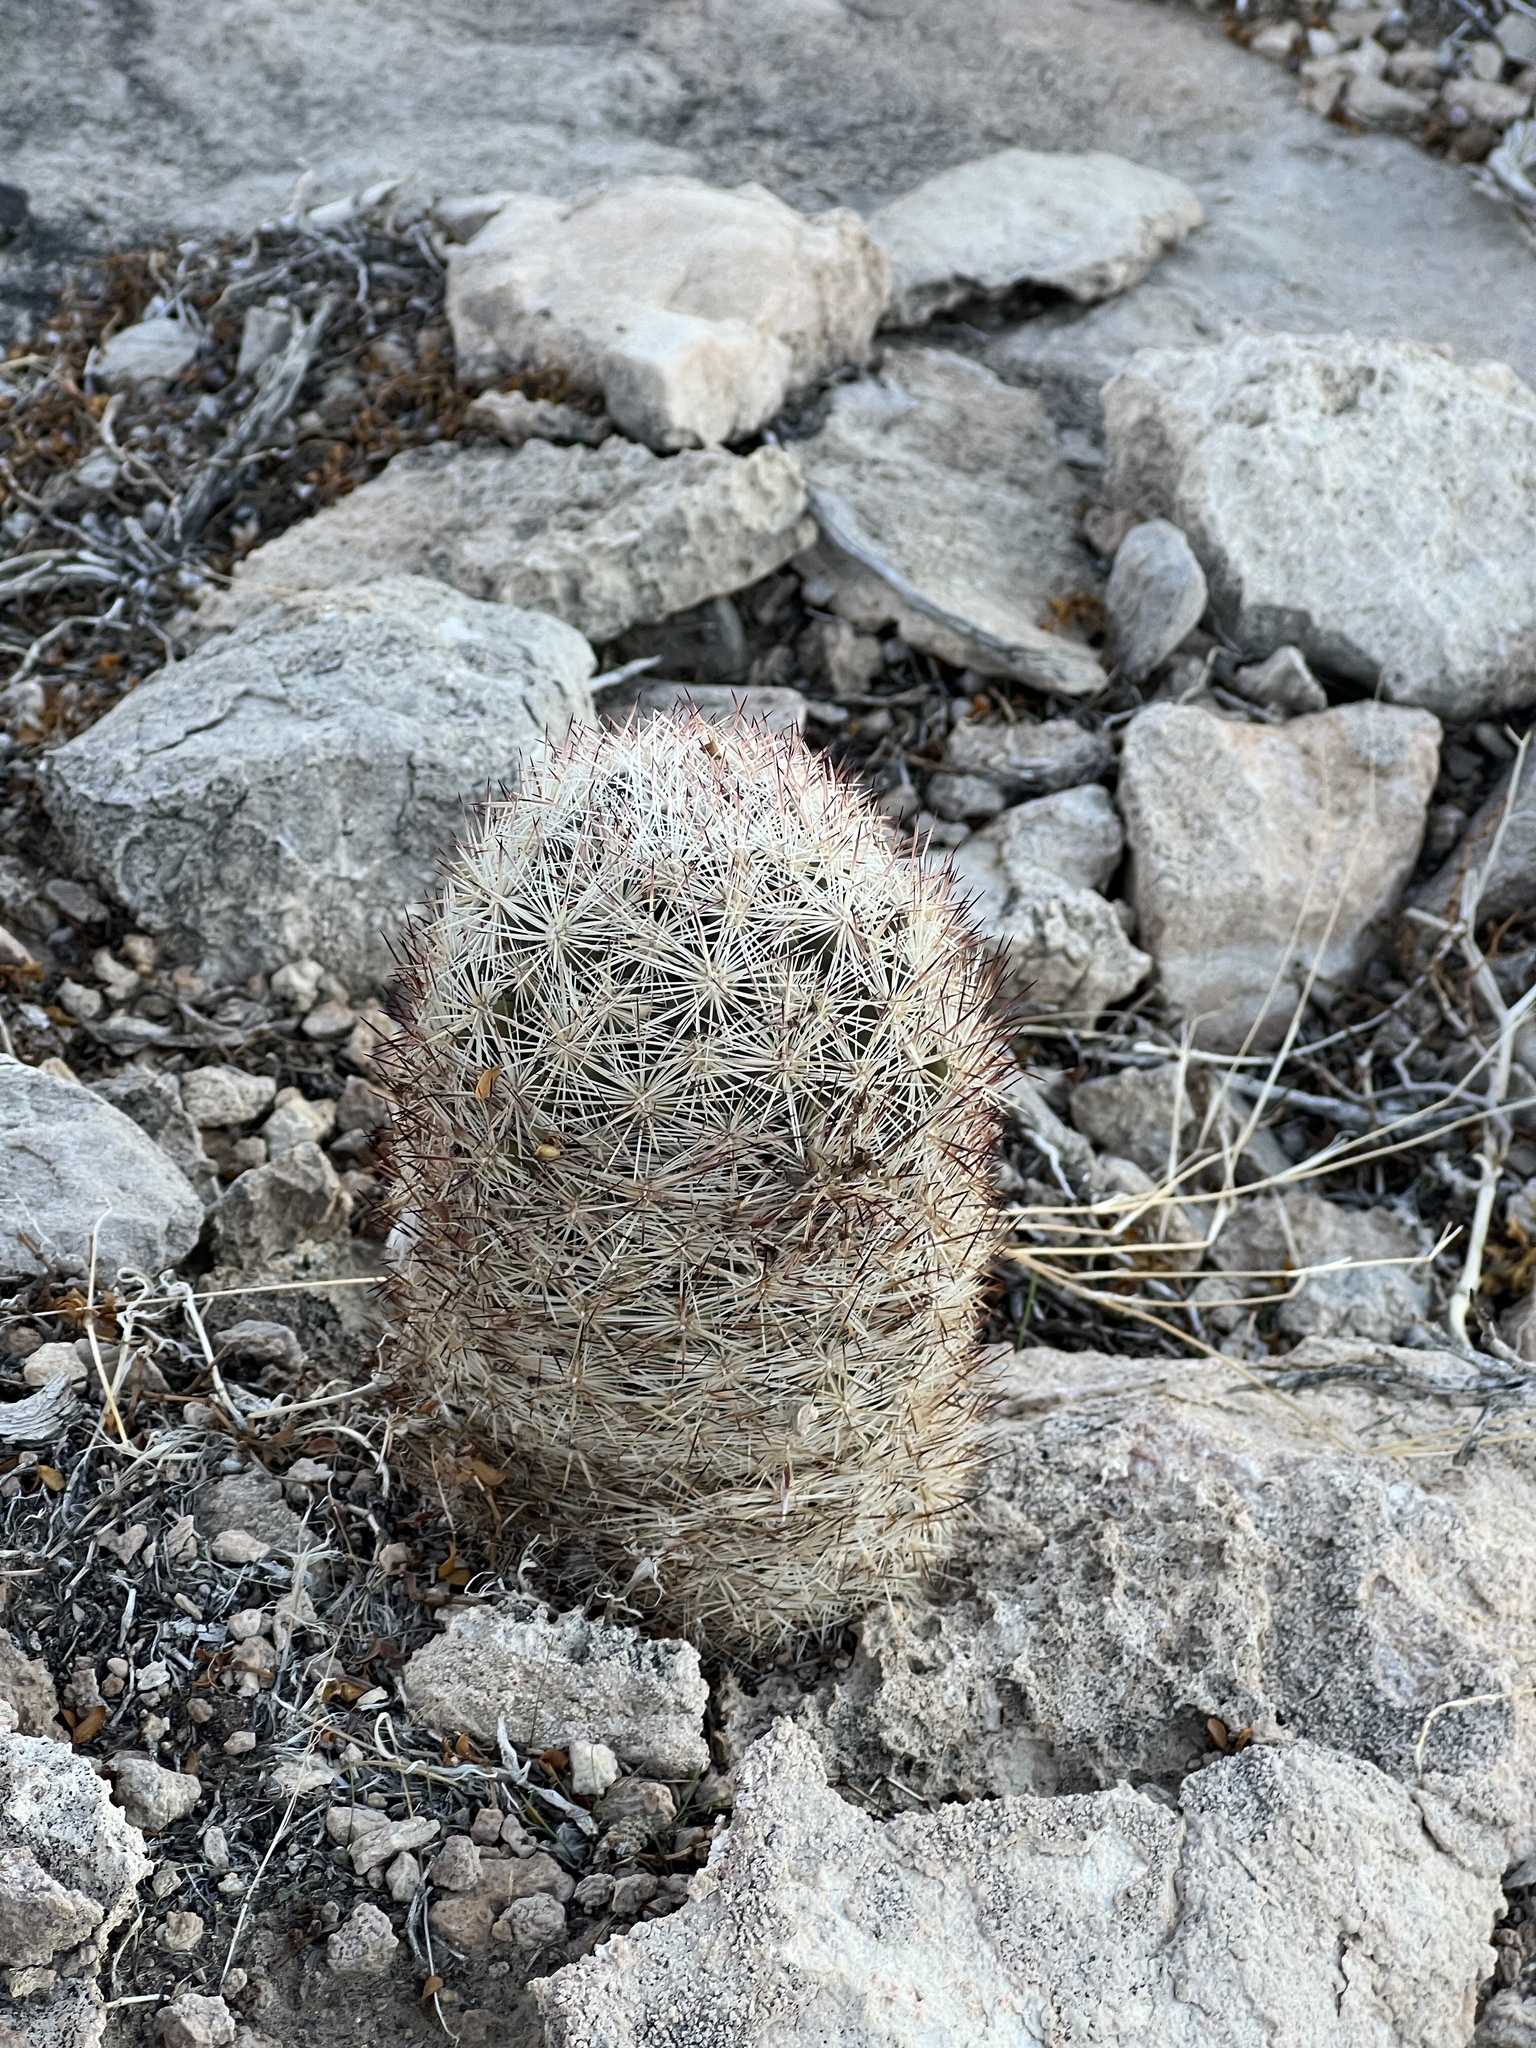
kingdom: Plantae
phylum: Tracheophyta
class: Magnoliopsida
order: Caryophyllales
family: Cactaceae
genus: Pelecyphora
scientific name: Pelecyphora dasyacantha
